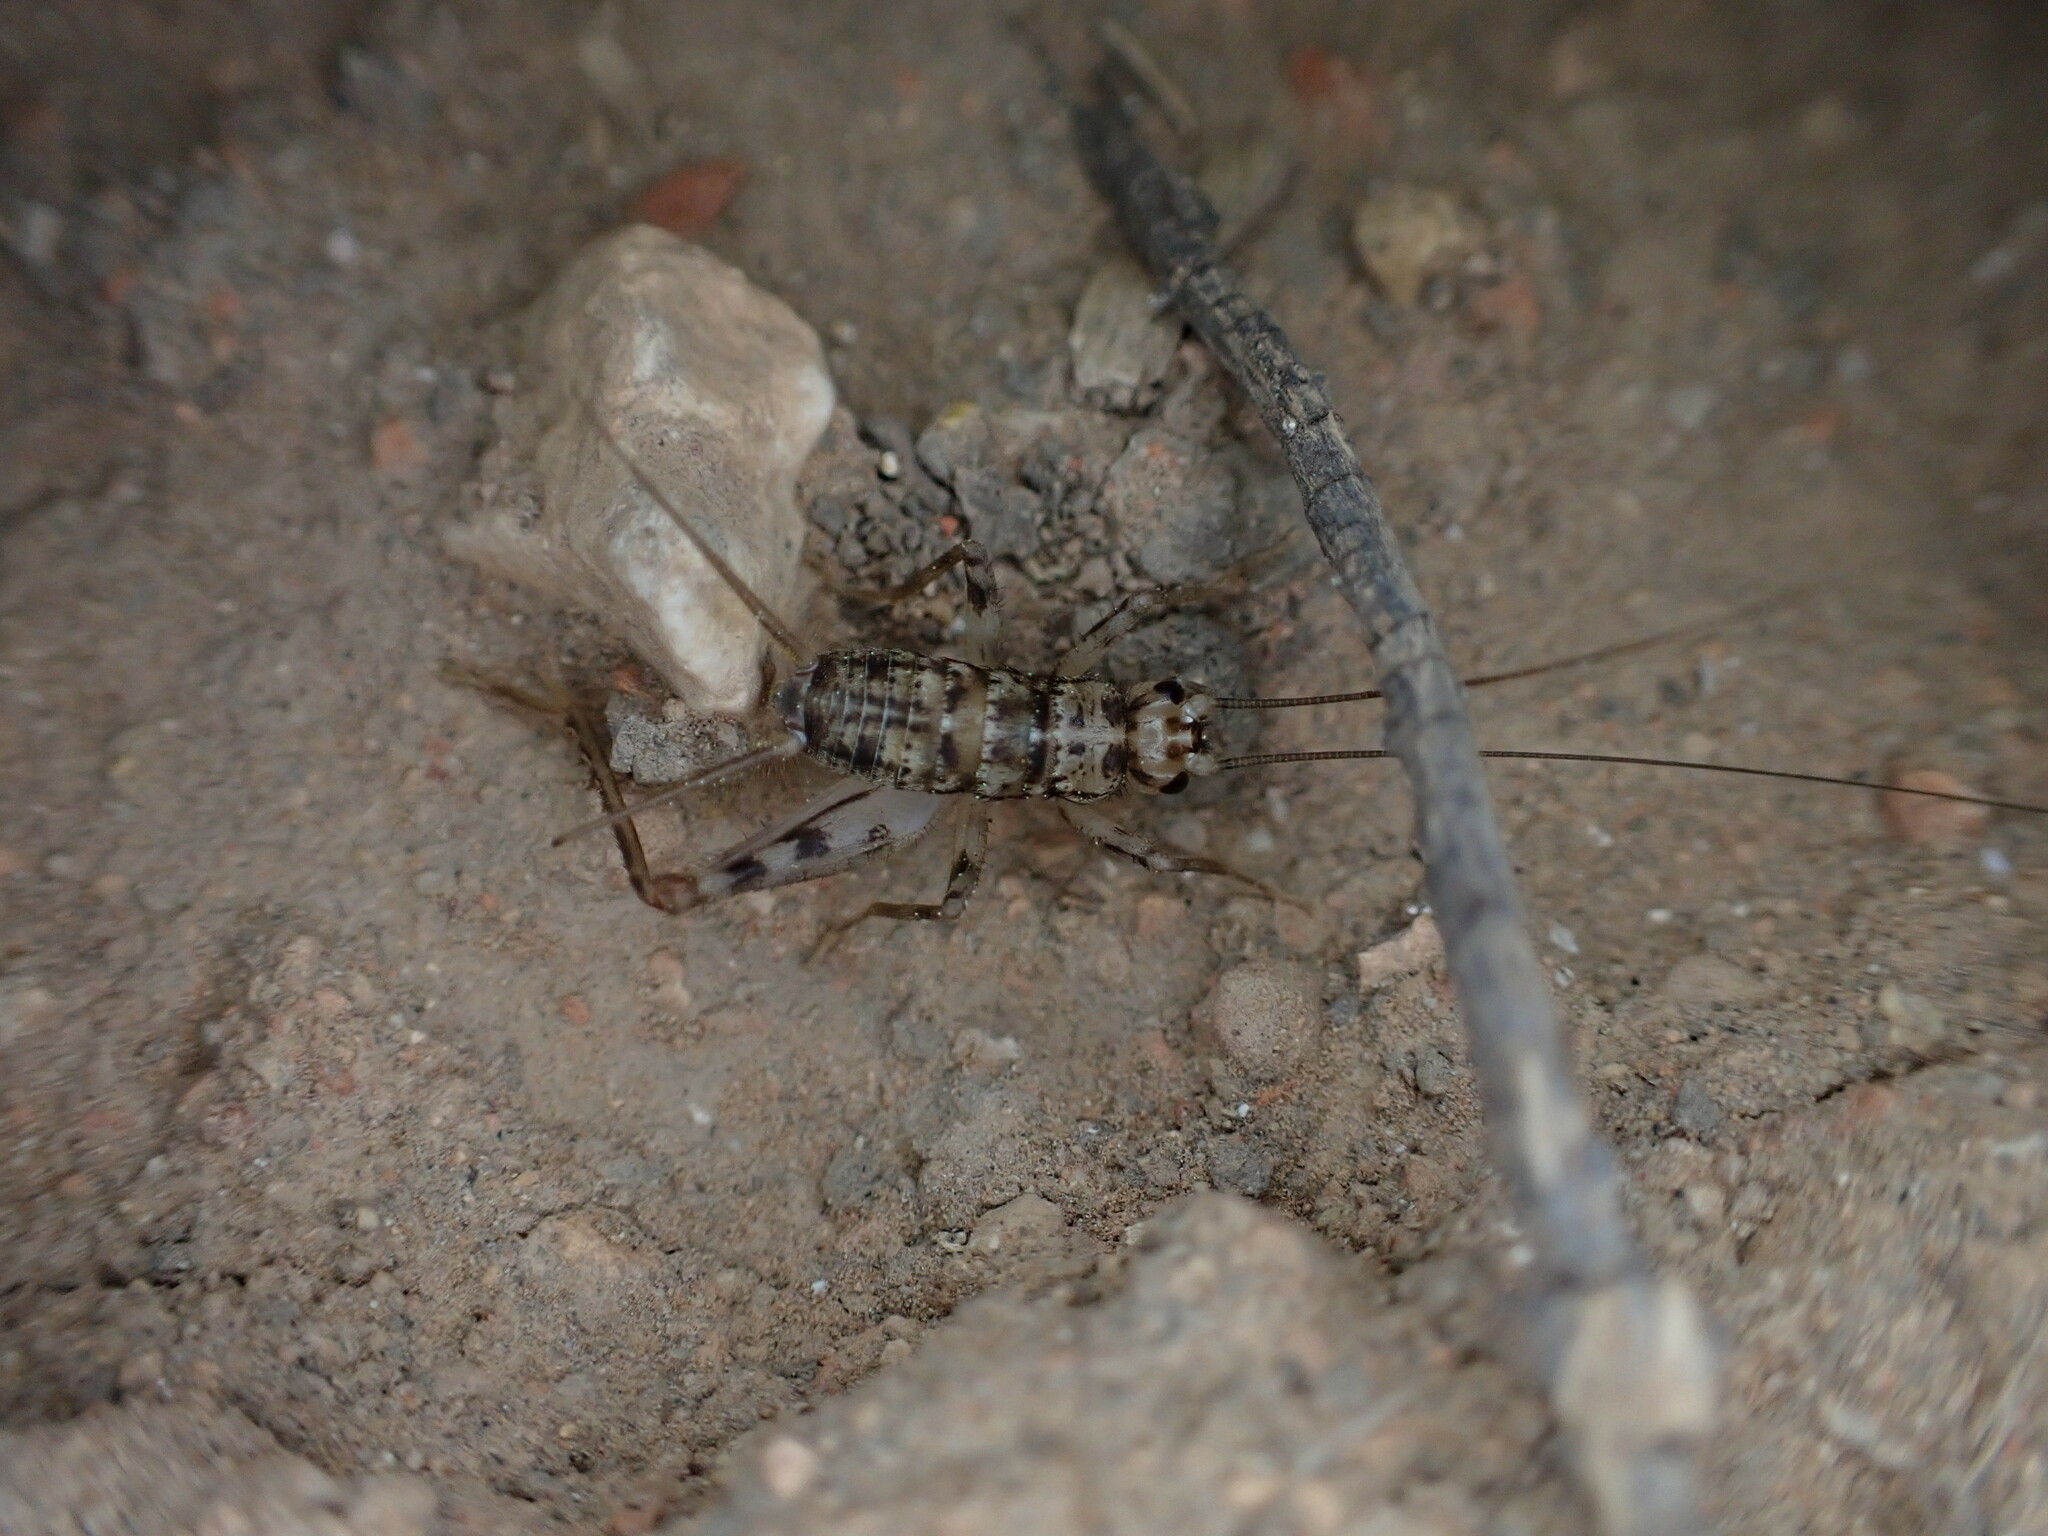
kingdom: Animalia
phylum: Arthropoda
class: Insecta
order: Orthoptera
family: Gryllidae
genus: Gryllomorpha
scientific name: Gryllomorpha dalmatina
